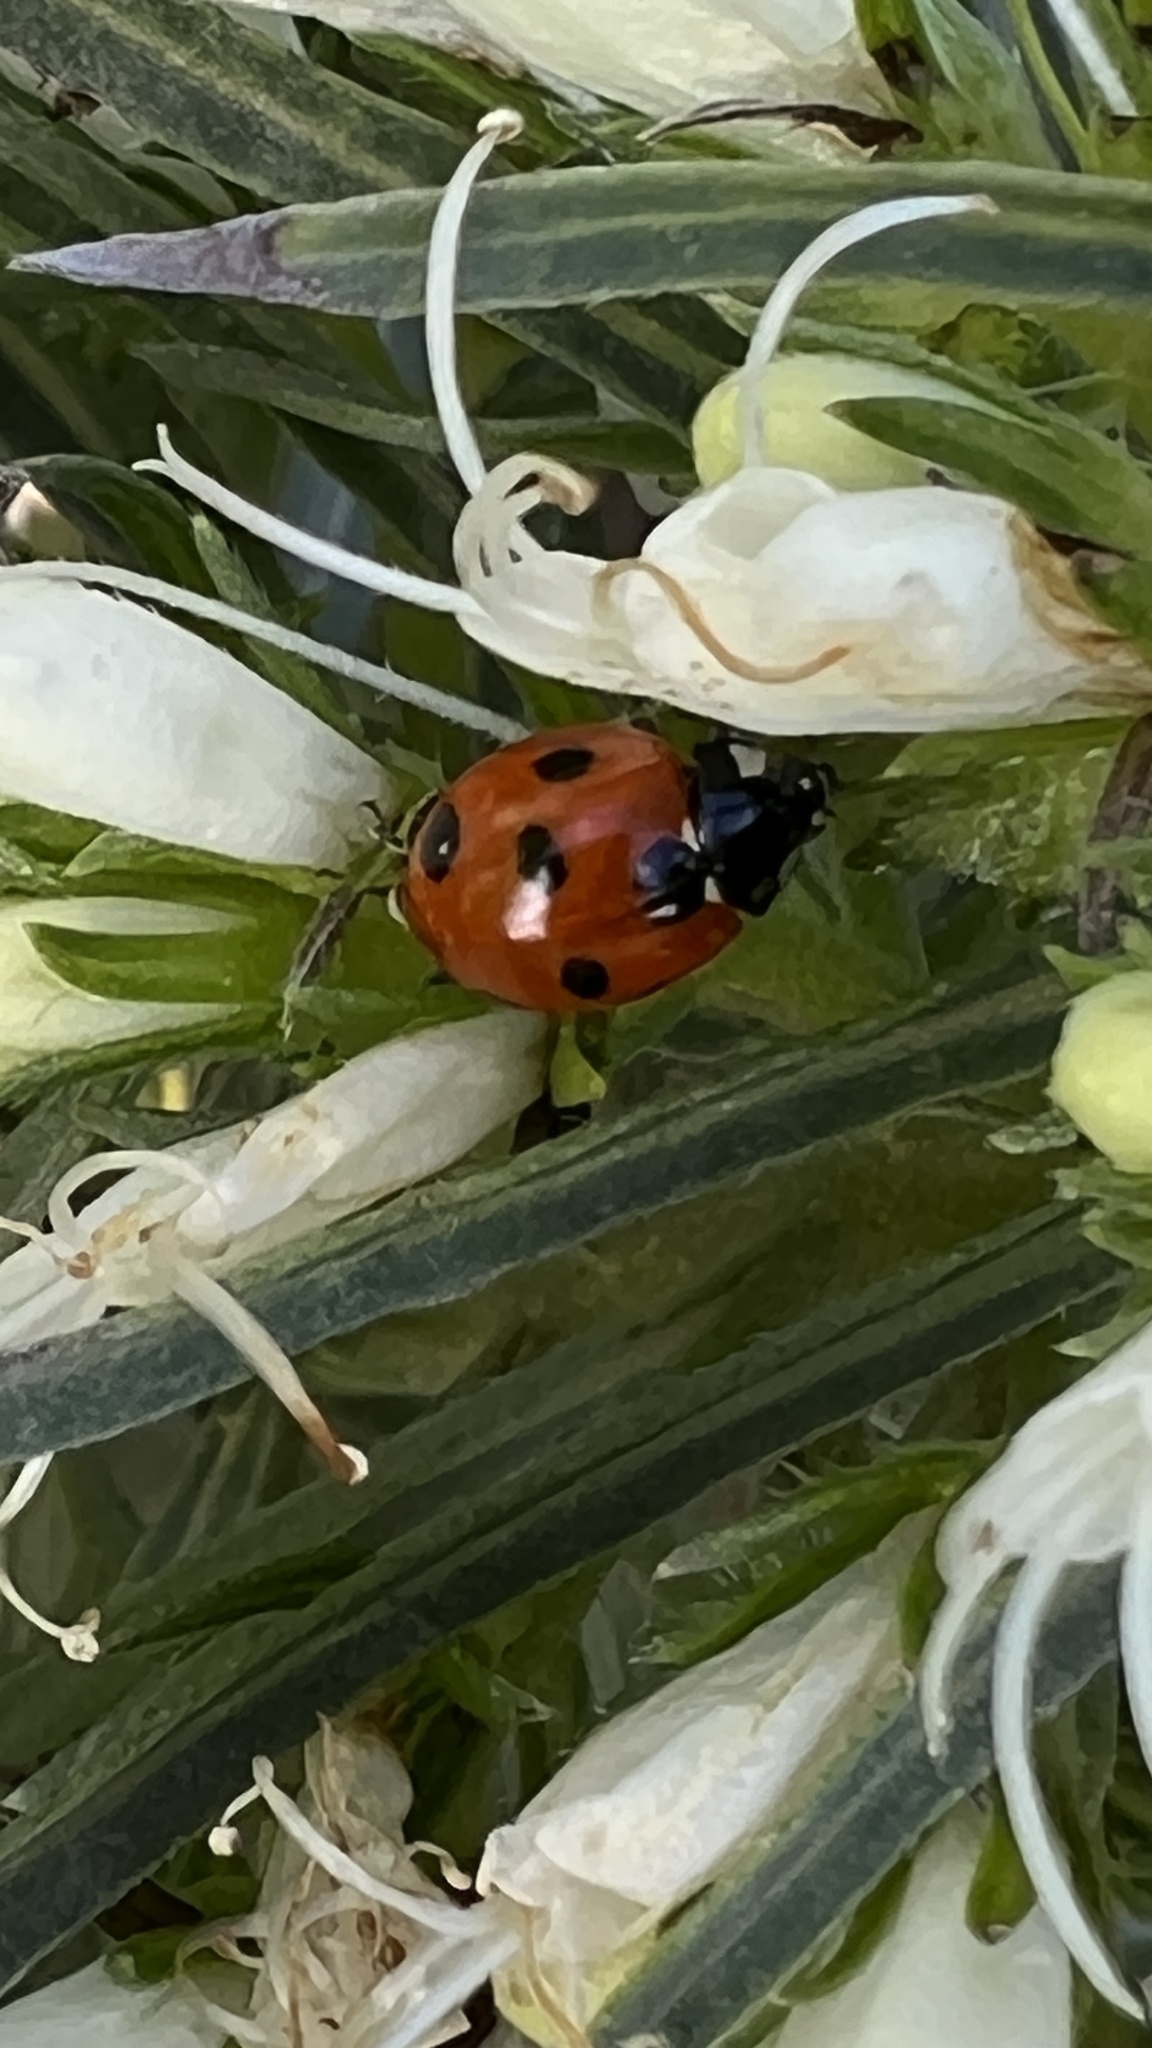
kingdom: Animalia
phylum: Arthropoda
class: Insecta
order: Coleoptera
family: Coccinellidae
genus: Coccinella
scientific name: Coccinella algerica
